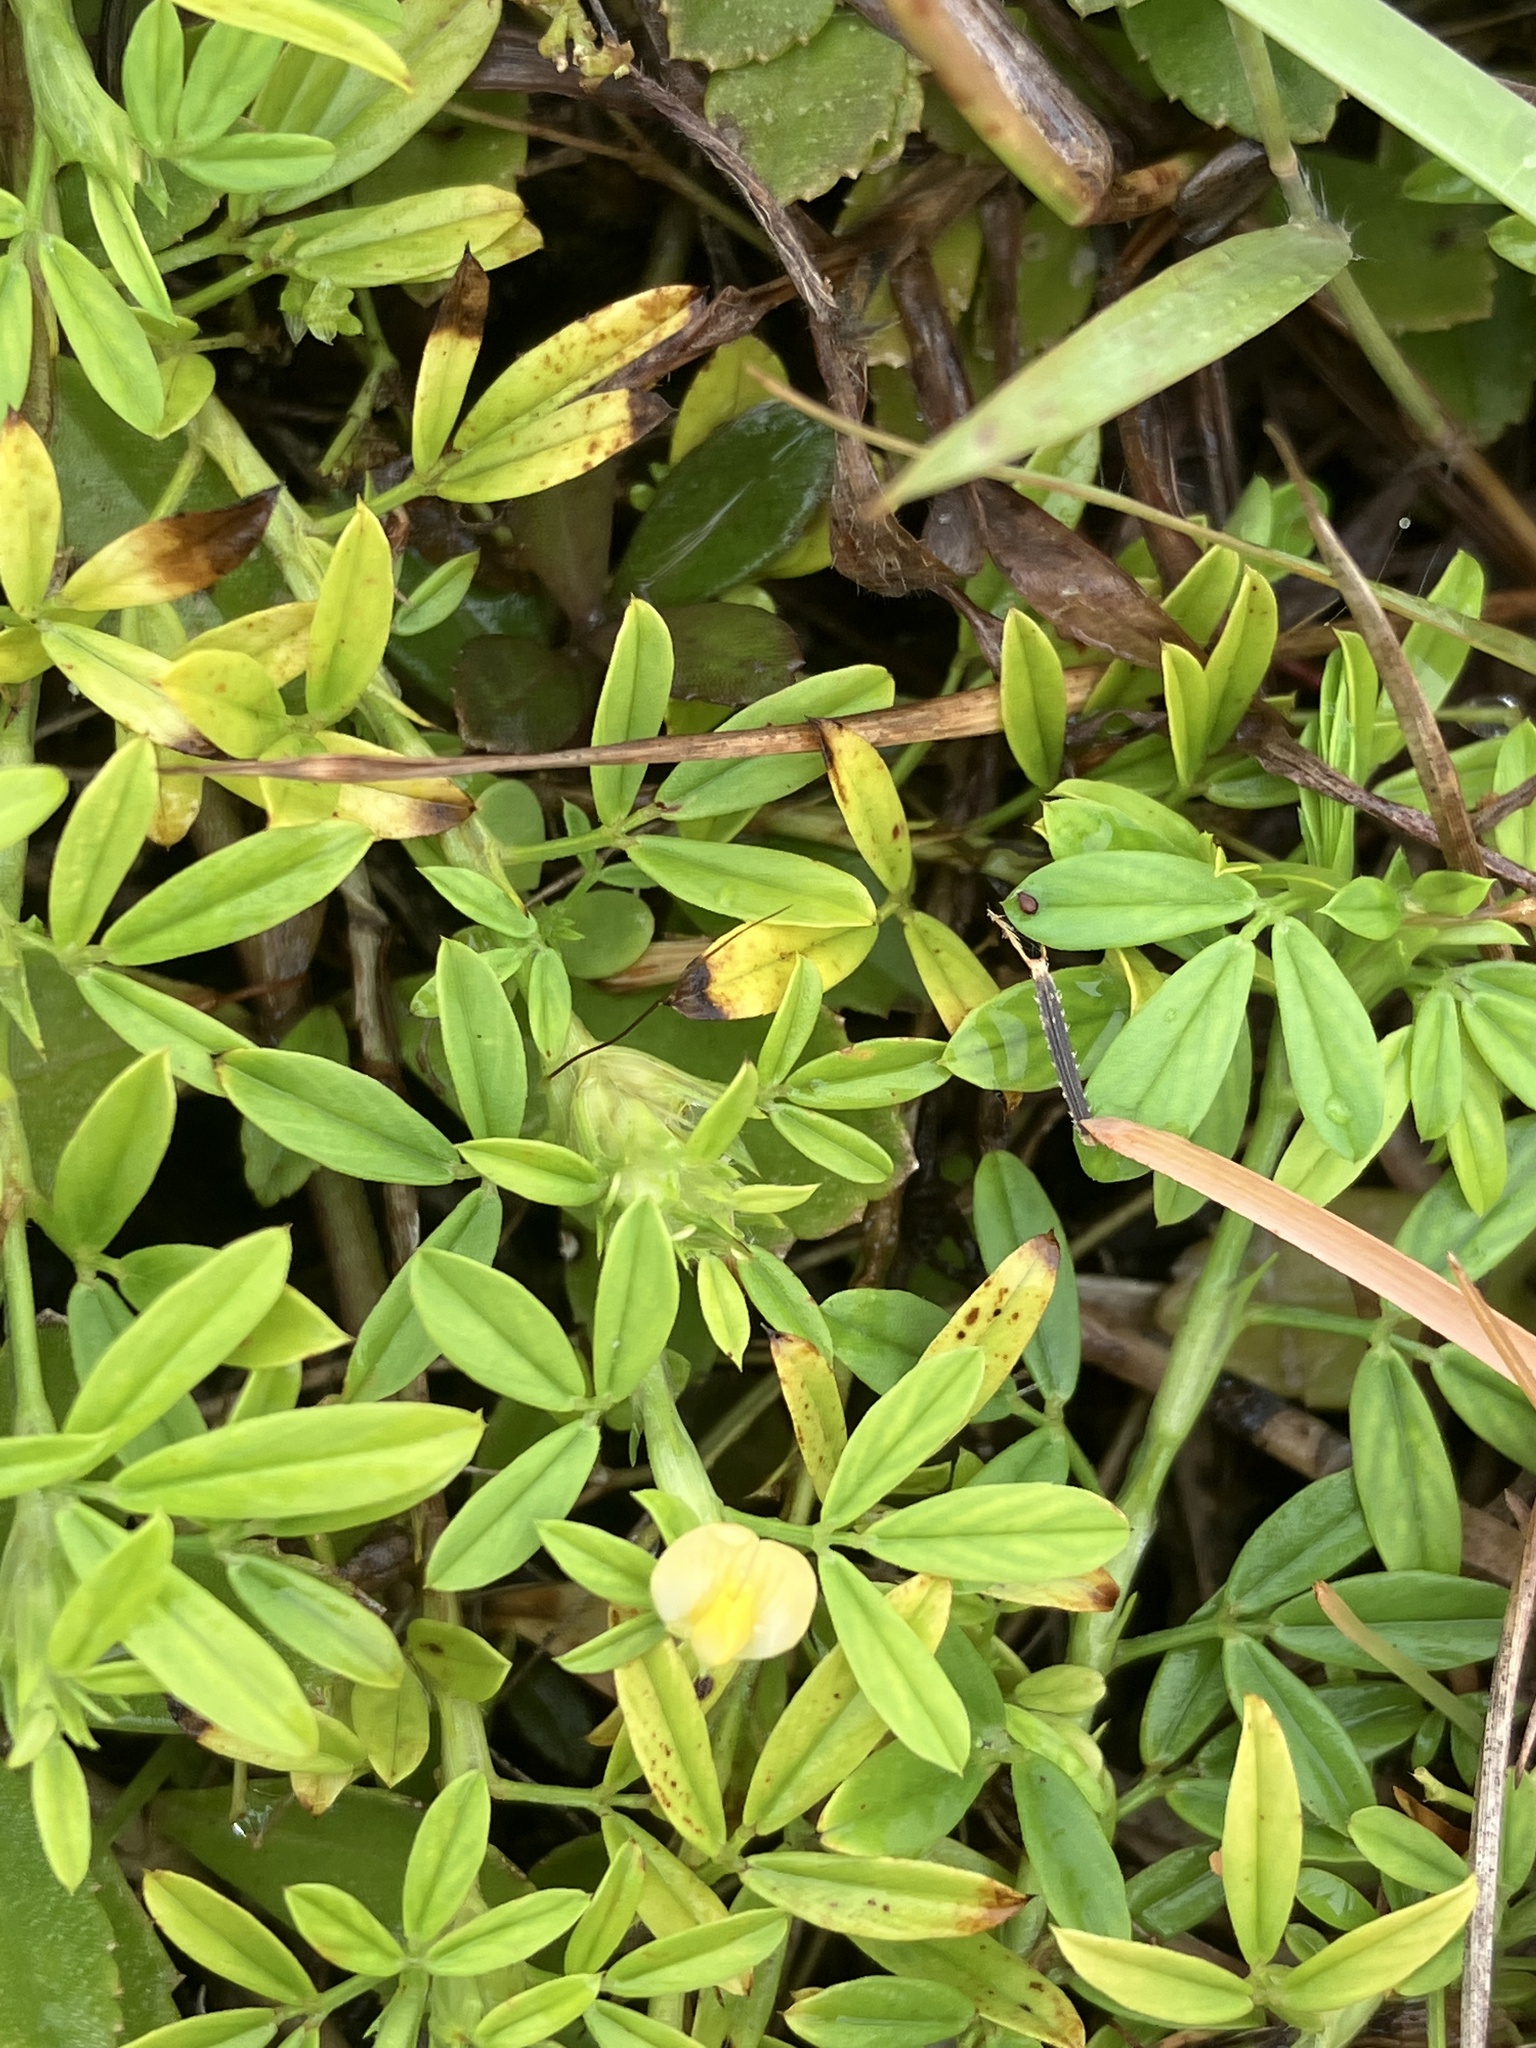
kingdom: Plantae
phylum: Tracheophyta
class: Magnoliopsida
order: Fabales
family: Fabaceae
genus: Stylosanthes
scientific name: Stylosanthes scabra
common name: Pencilflower
